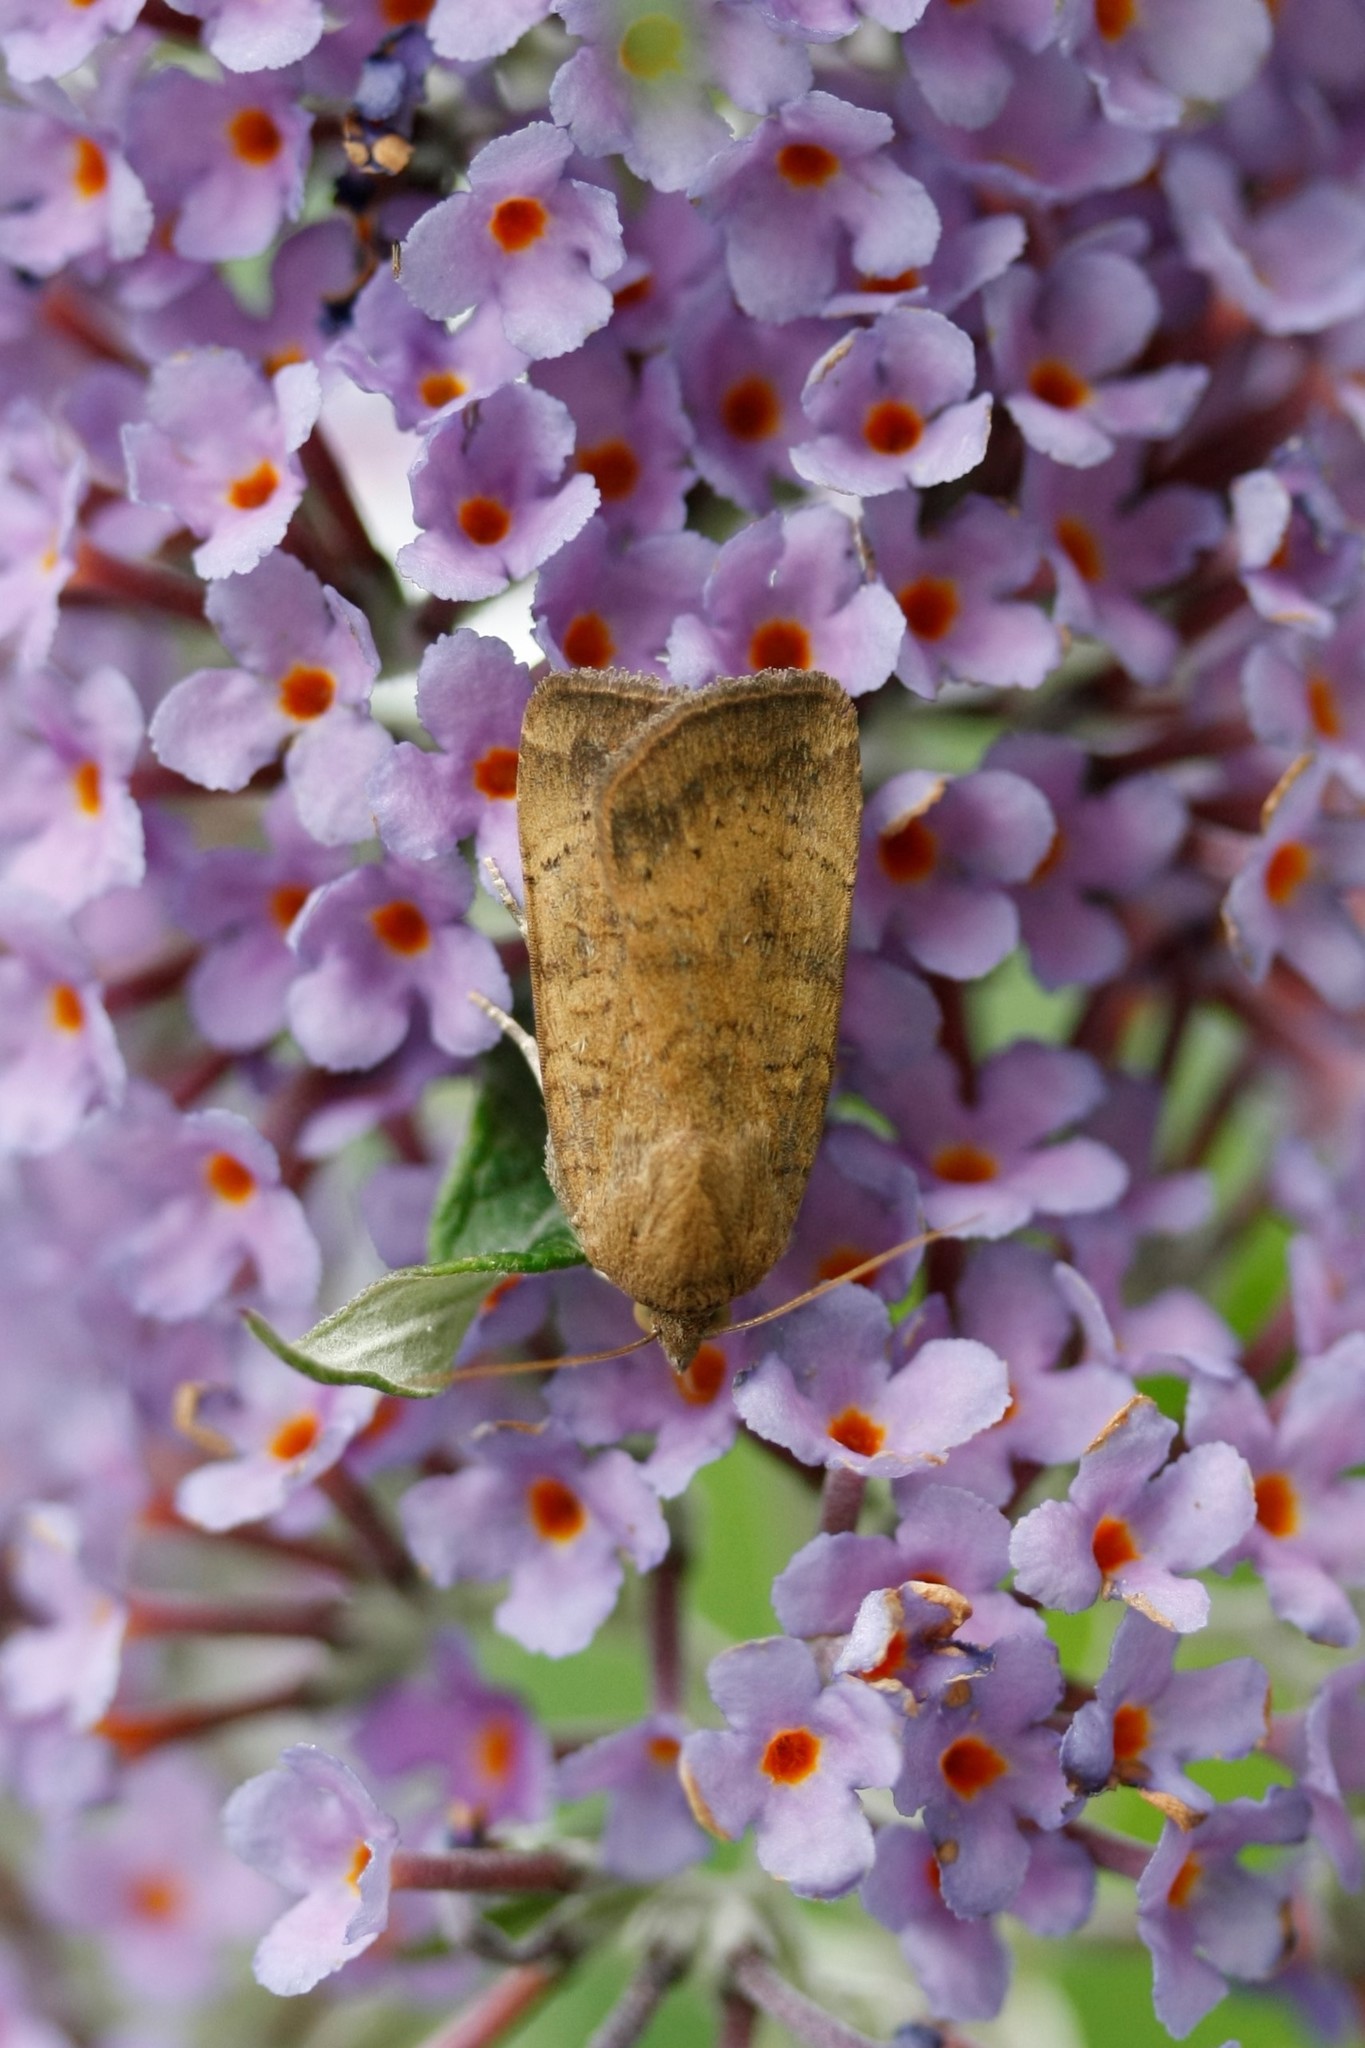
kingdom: Animalia
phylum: Arthropoda
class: Insecta
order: Lepidoptera
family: Noctuidae
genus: Noctua
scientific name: Noctua interjecta
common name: Least yellow underwing
